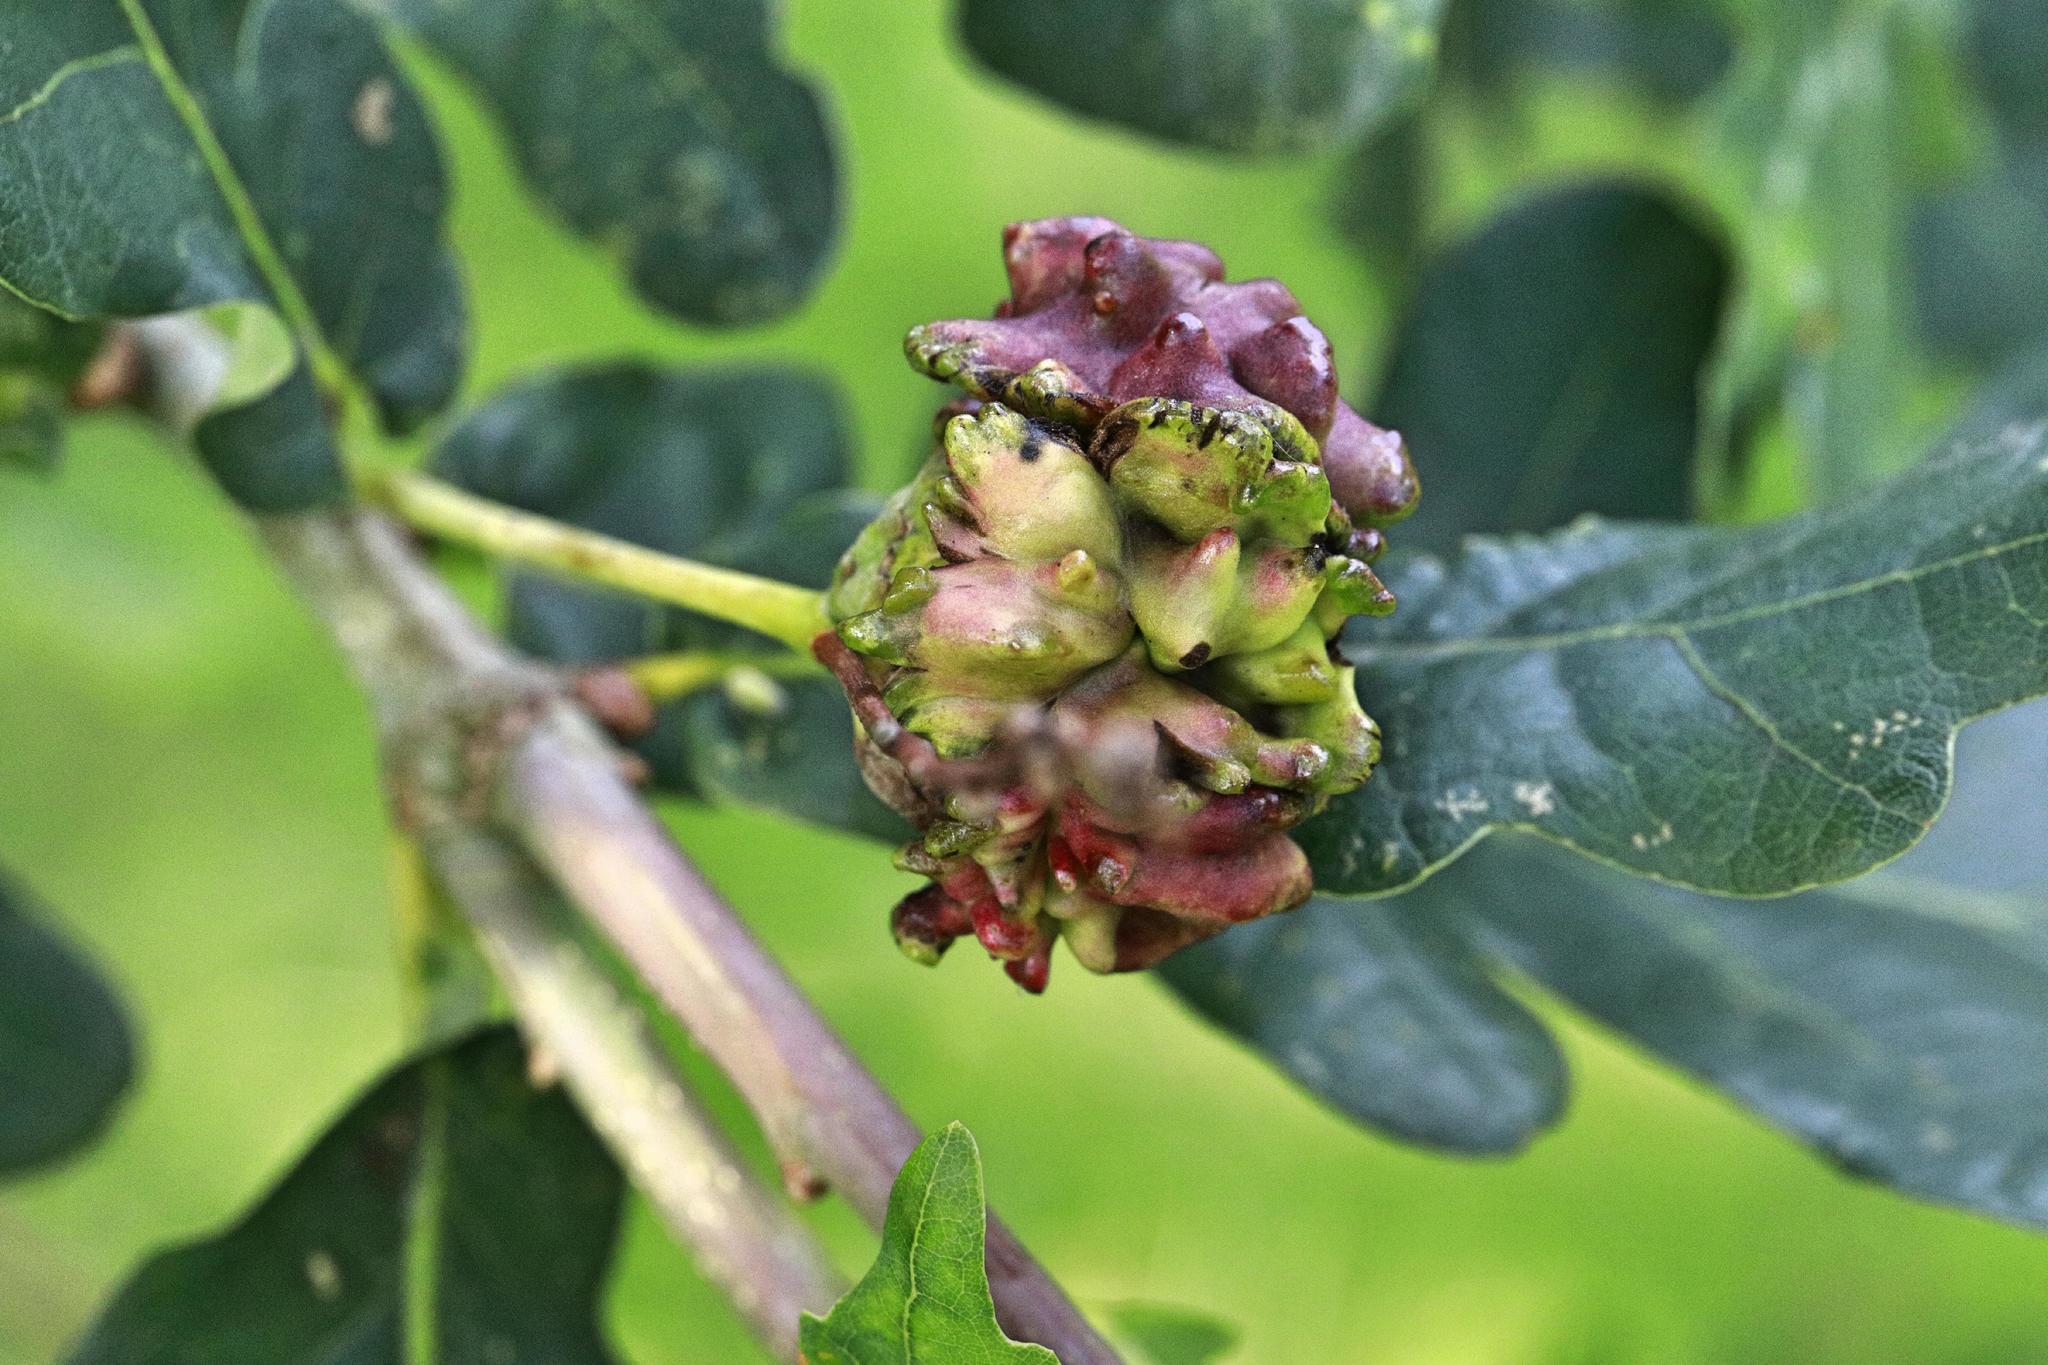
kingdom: Animalia
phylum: Arthropoda
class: Insecta
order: Hymenoptera
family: Cynipidae
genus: Andricus
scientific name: Andricus quercuscalicis
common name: Knopper gall
